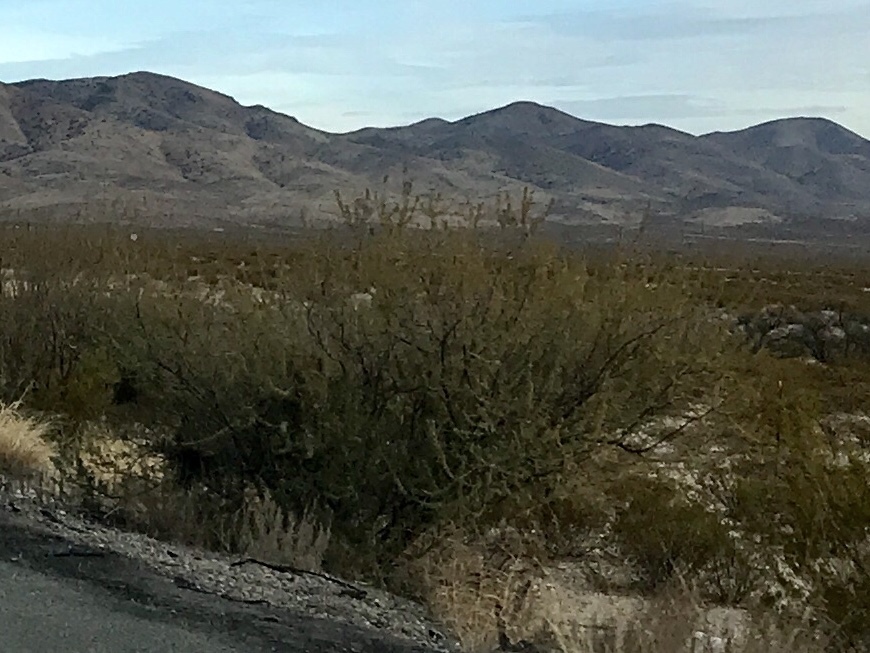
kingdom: Plantae
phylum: Tracheophyta
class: Magnoliopsida
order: Zygophyllales
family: Zygophyllaceae
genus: Larrea
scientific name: Larrea tridentata
